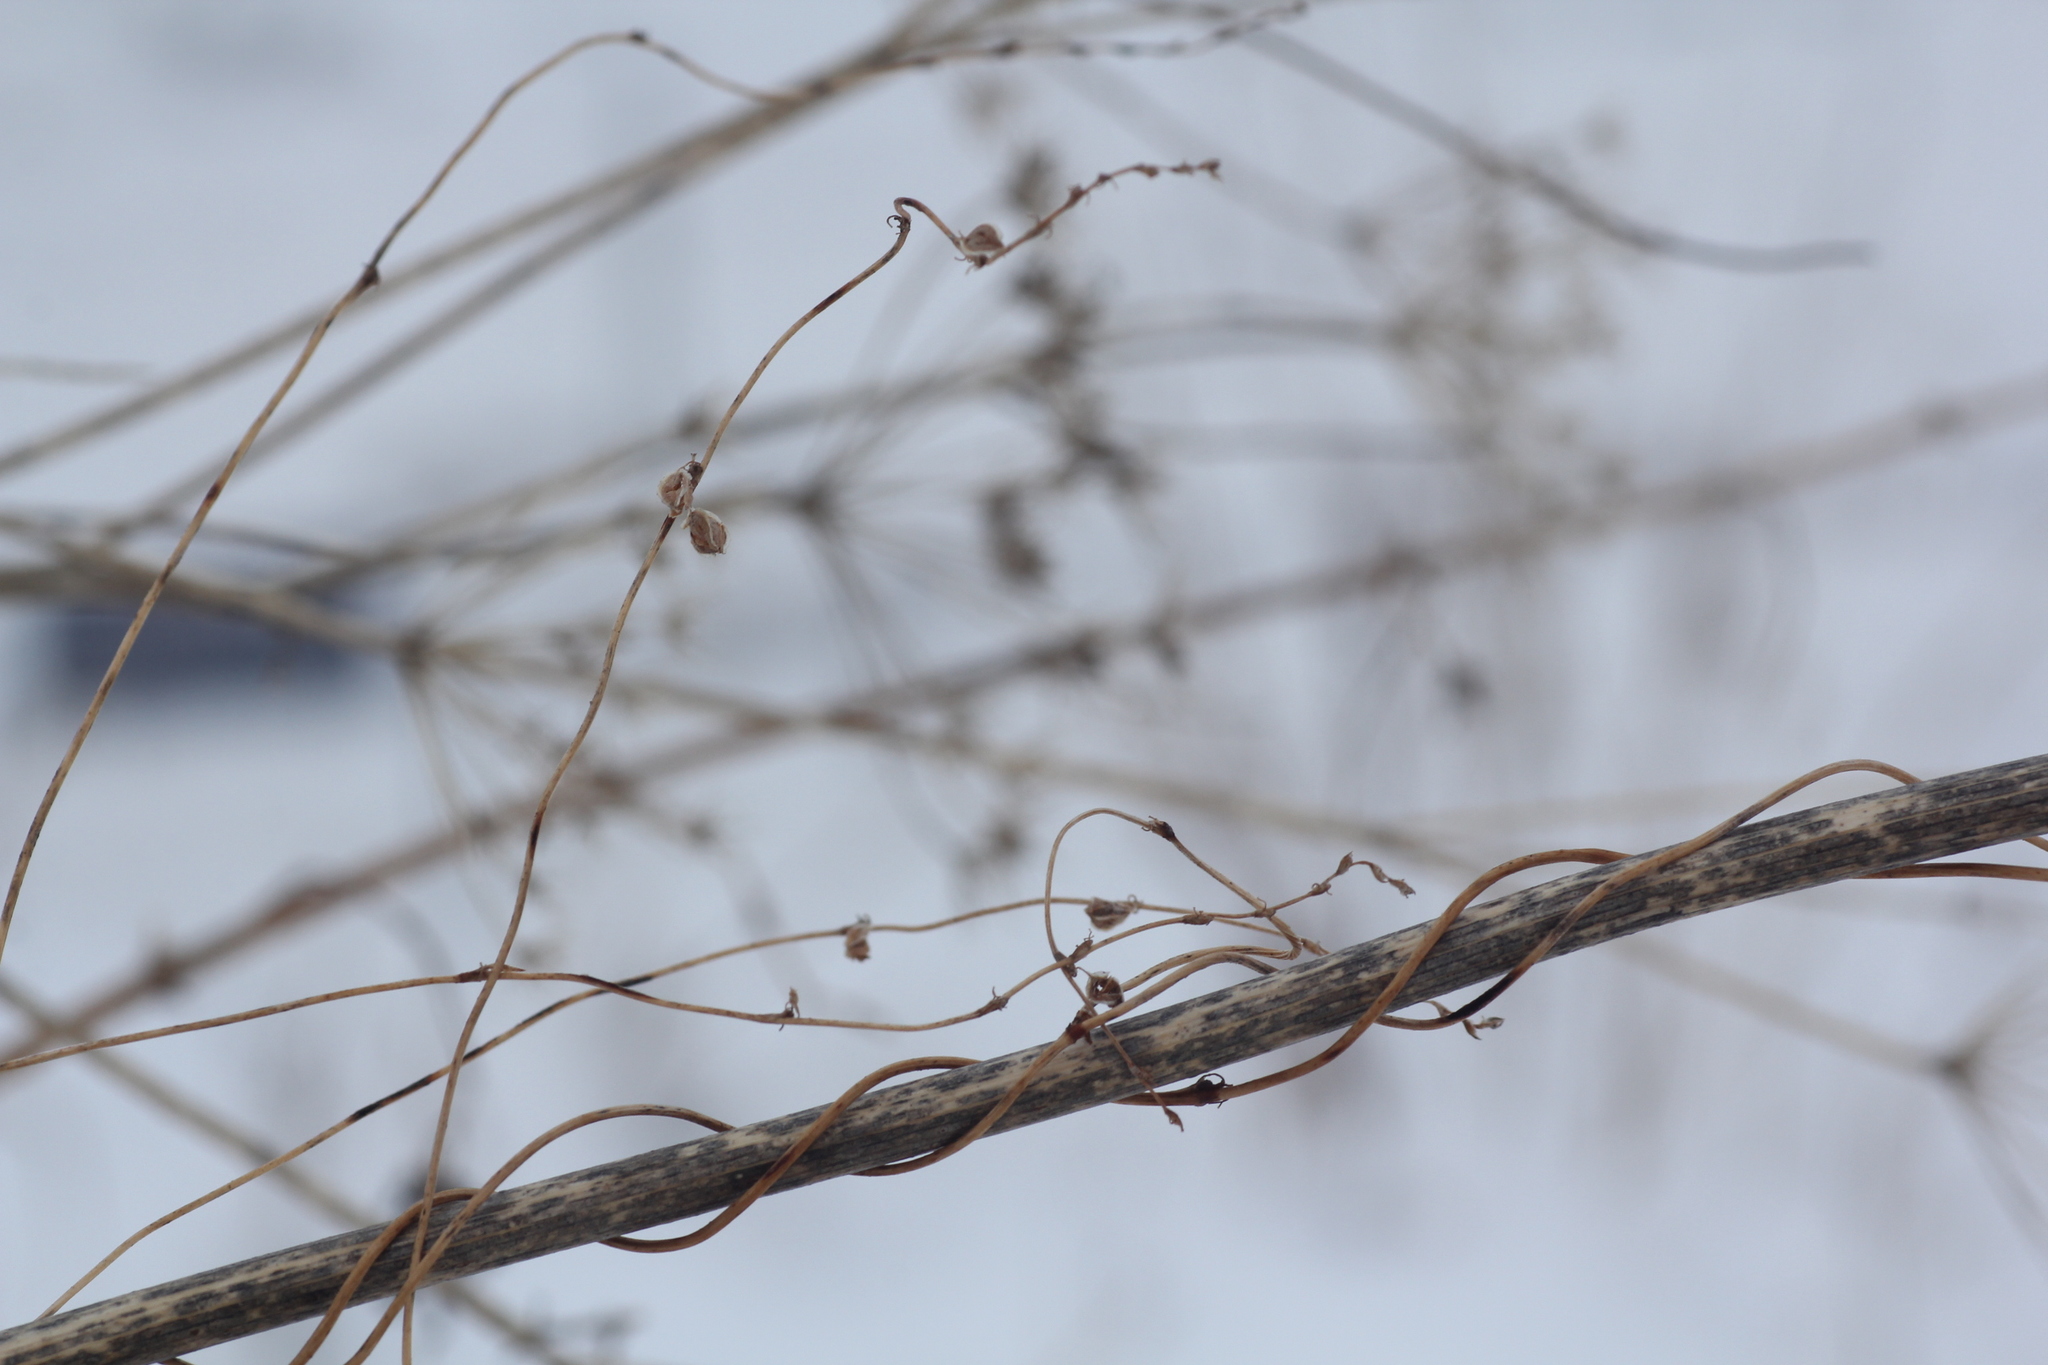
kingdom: Plantae
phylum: Tracheophyta
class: Magnoliopsida
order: Caryophyllales
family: Polygonaceae
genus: Fallopia
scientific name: Fallopia dumetorum
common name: Copse-bindweed
